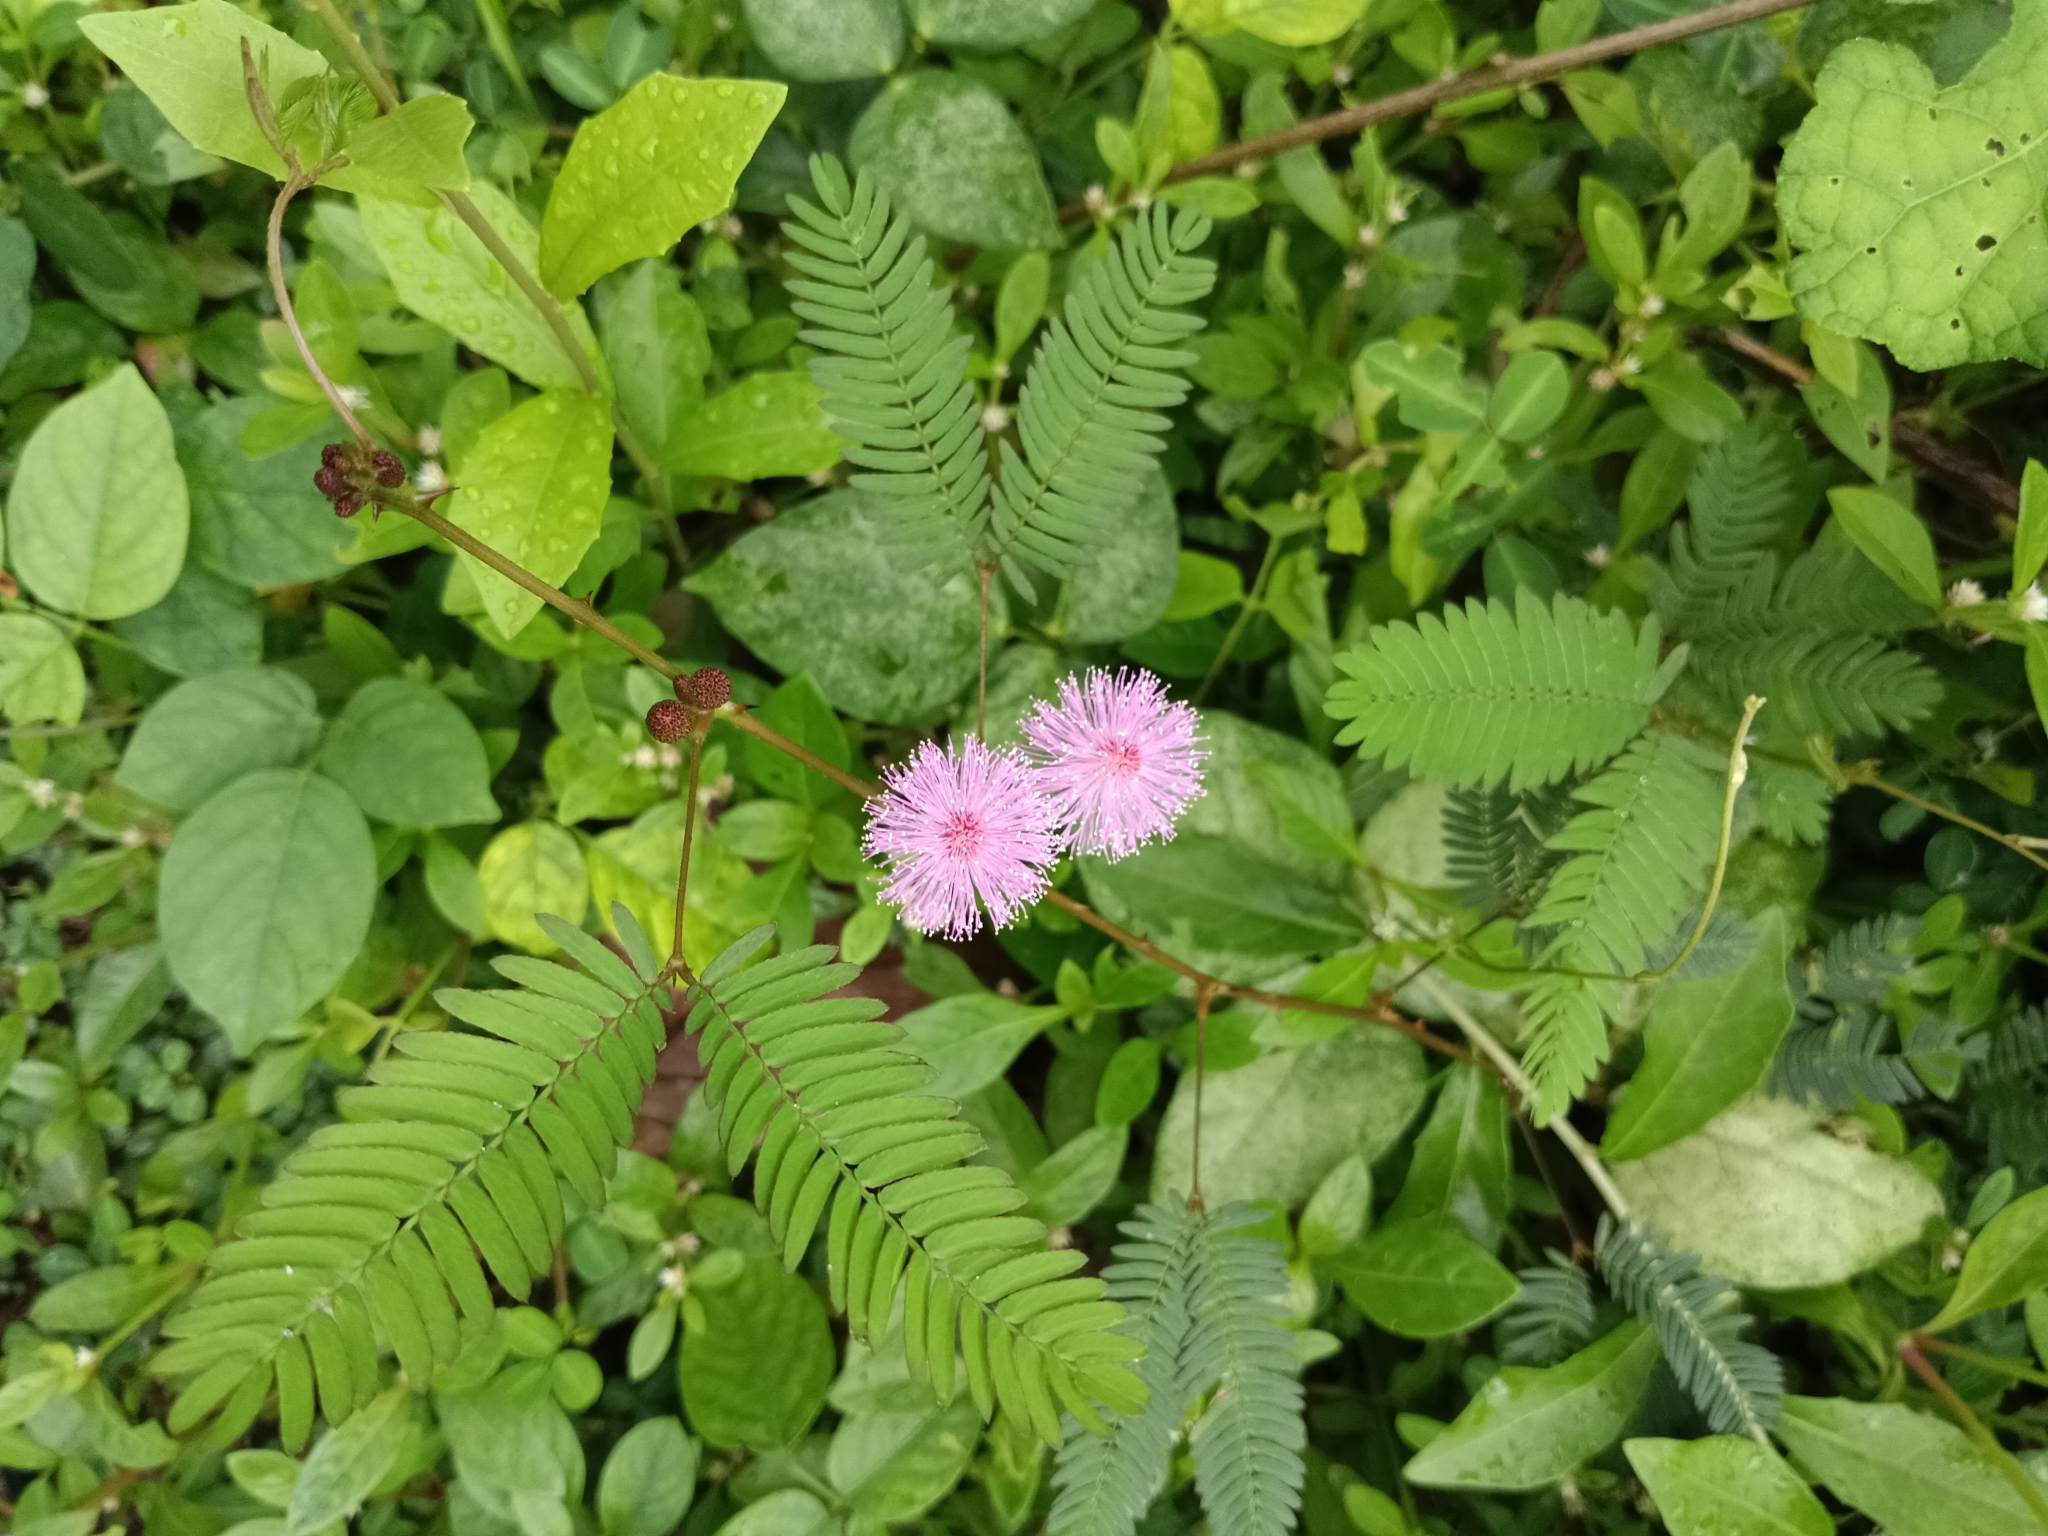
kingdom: Plantae
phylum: Tracheophyta
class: Magnoliopsida
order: Fabales
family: Fabaceae
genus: Mimosa
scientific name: Mimosa pudica
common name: Sensitive plant
